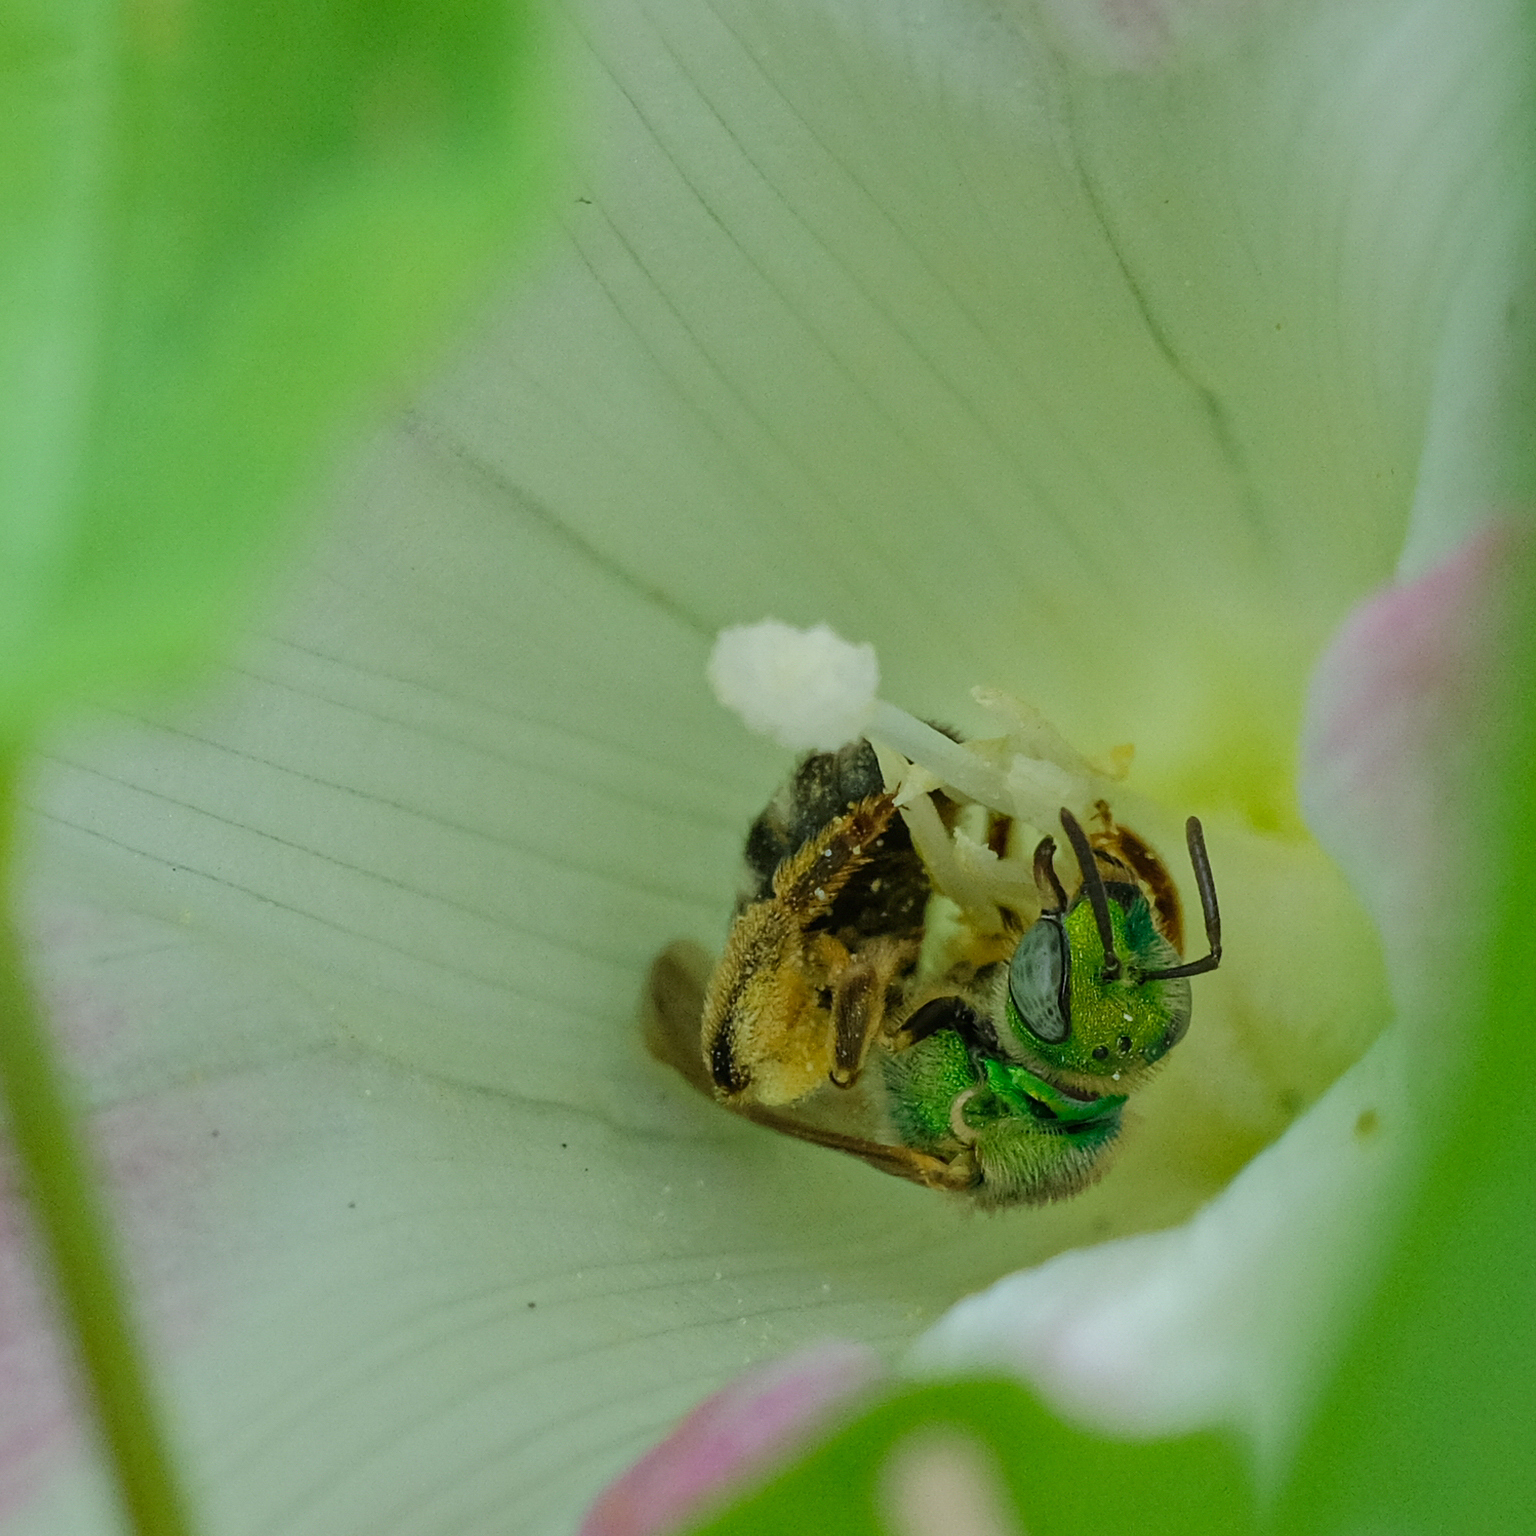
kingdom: Animalia
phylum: Arthropoda
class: Insecta
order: Hymenoptera
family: Halictidae
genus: Agapostemon
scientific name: Agapostemon virescens
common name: Bicolored striped sweat bee
